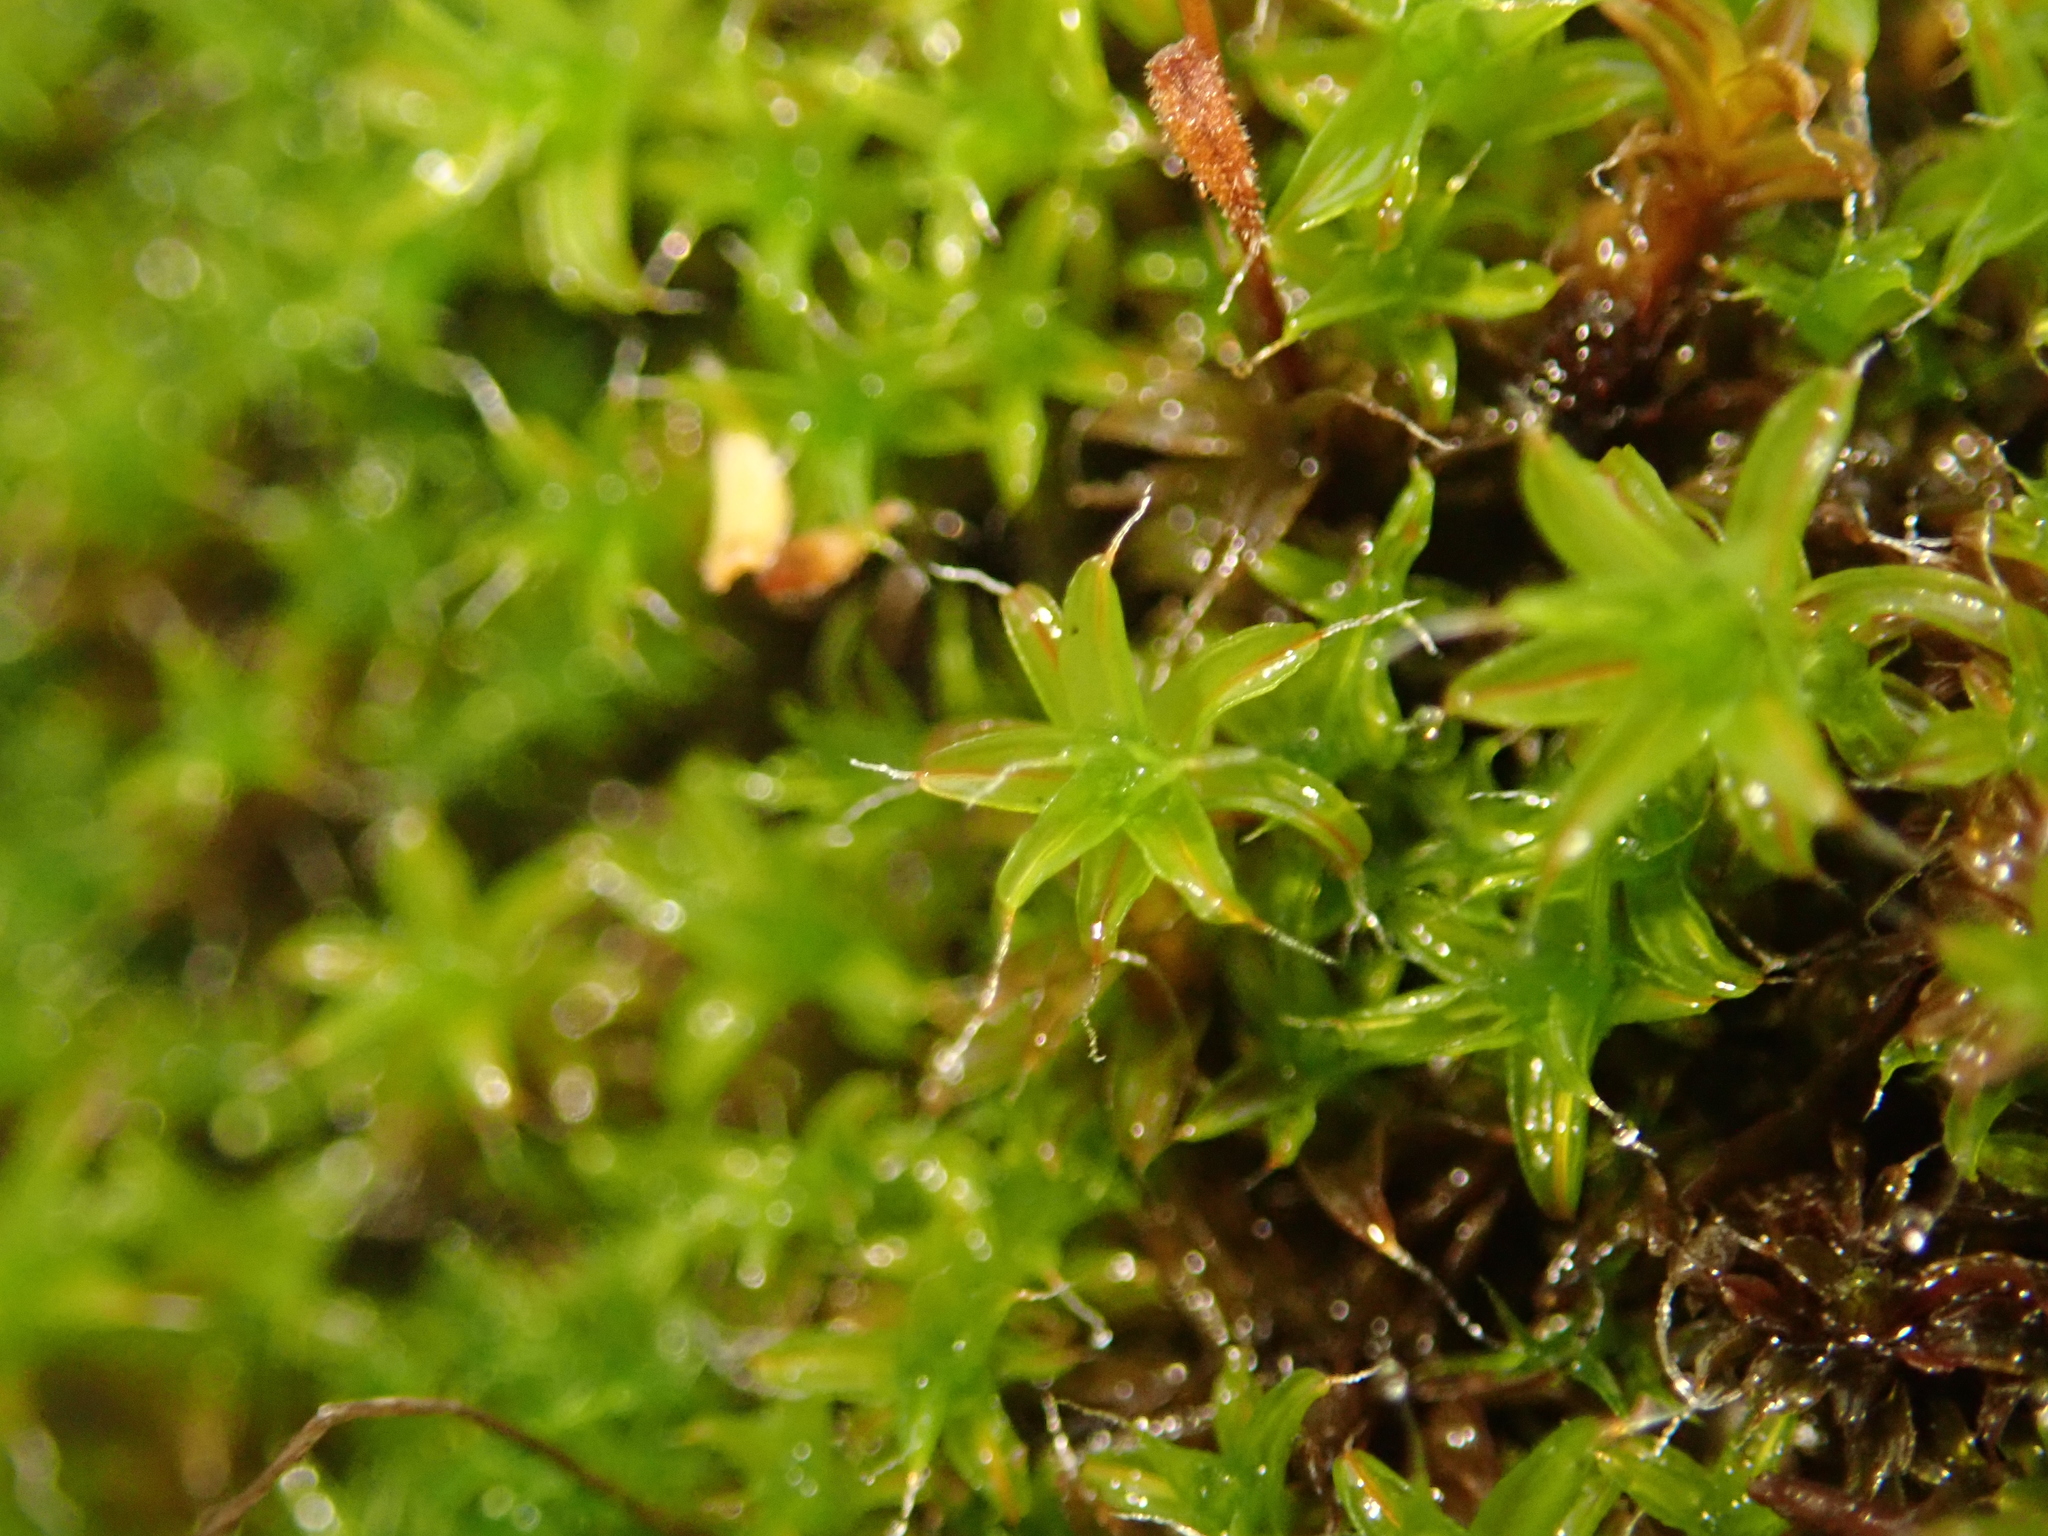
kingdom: Plantae
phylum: Bryophyta
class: Bryopsida
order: Pottiales
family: Pottiaceae
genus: Syntrichia
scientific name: Syntrichia ruralis
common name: Sidewalk screw moss
